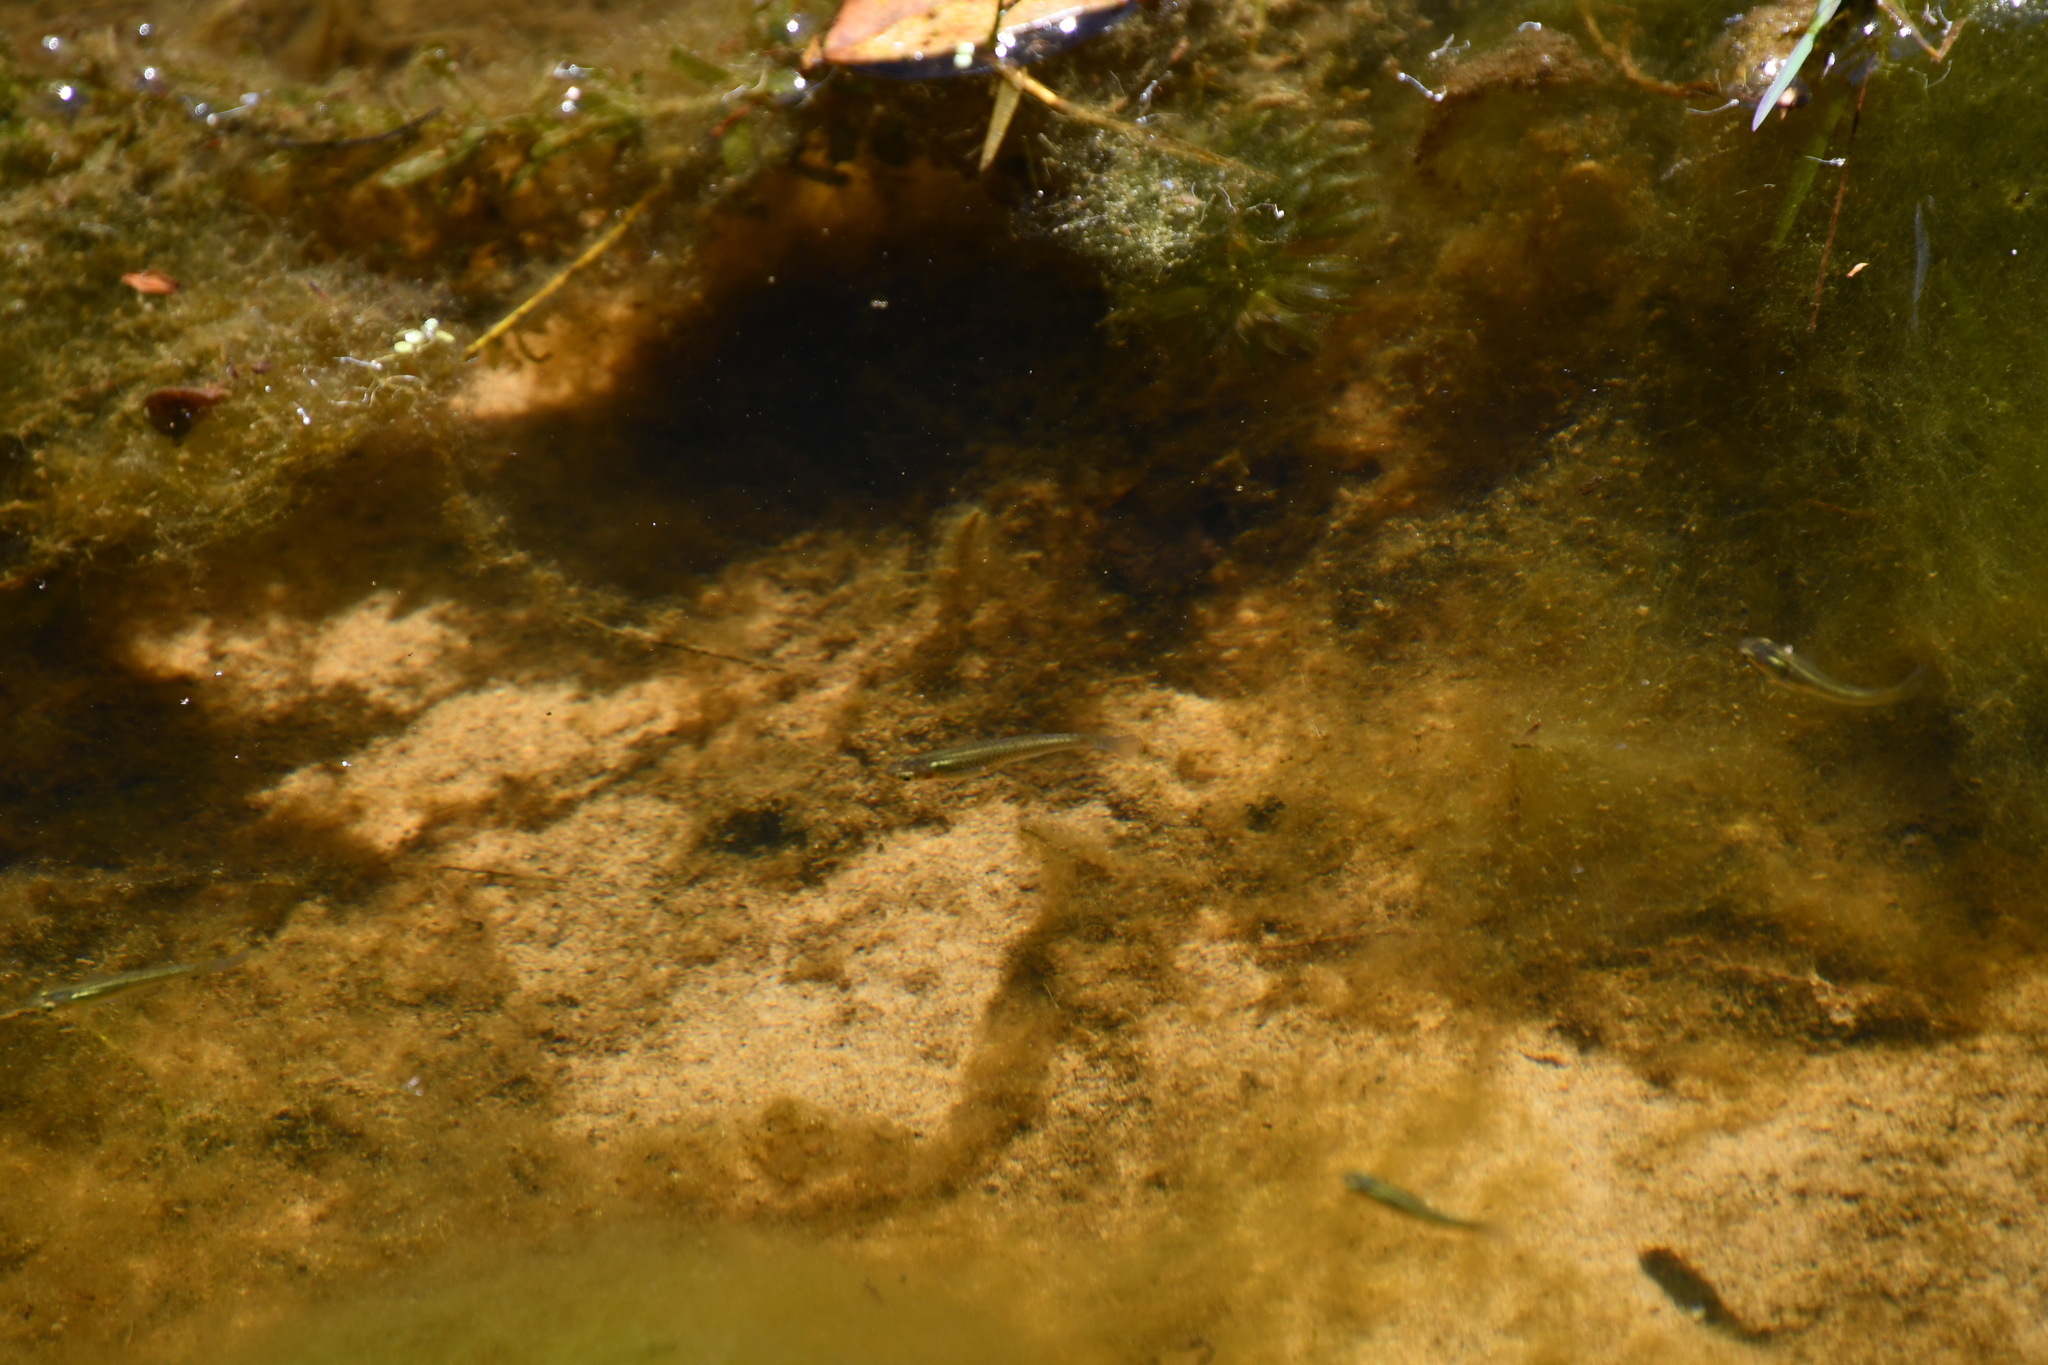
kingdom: Animalia
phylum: Chordata
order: Cyprinodontiformes
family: Poeciliidae
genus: Gambusia
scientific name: Gambusia holbrooki
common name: Eastern mosquitofish
